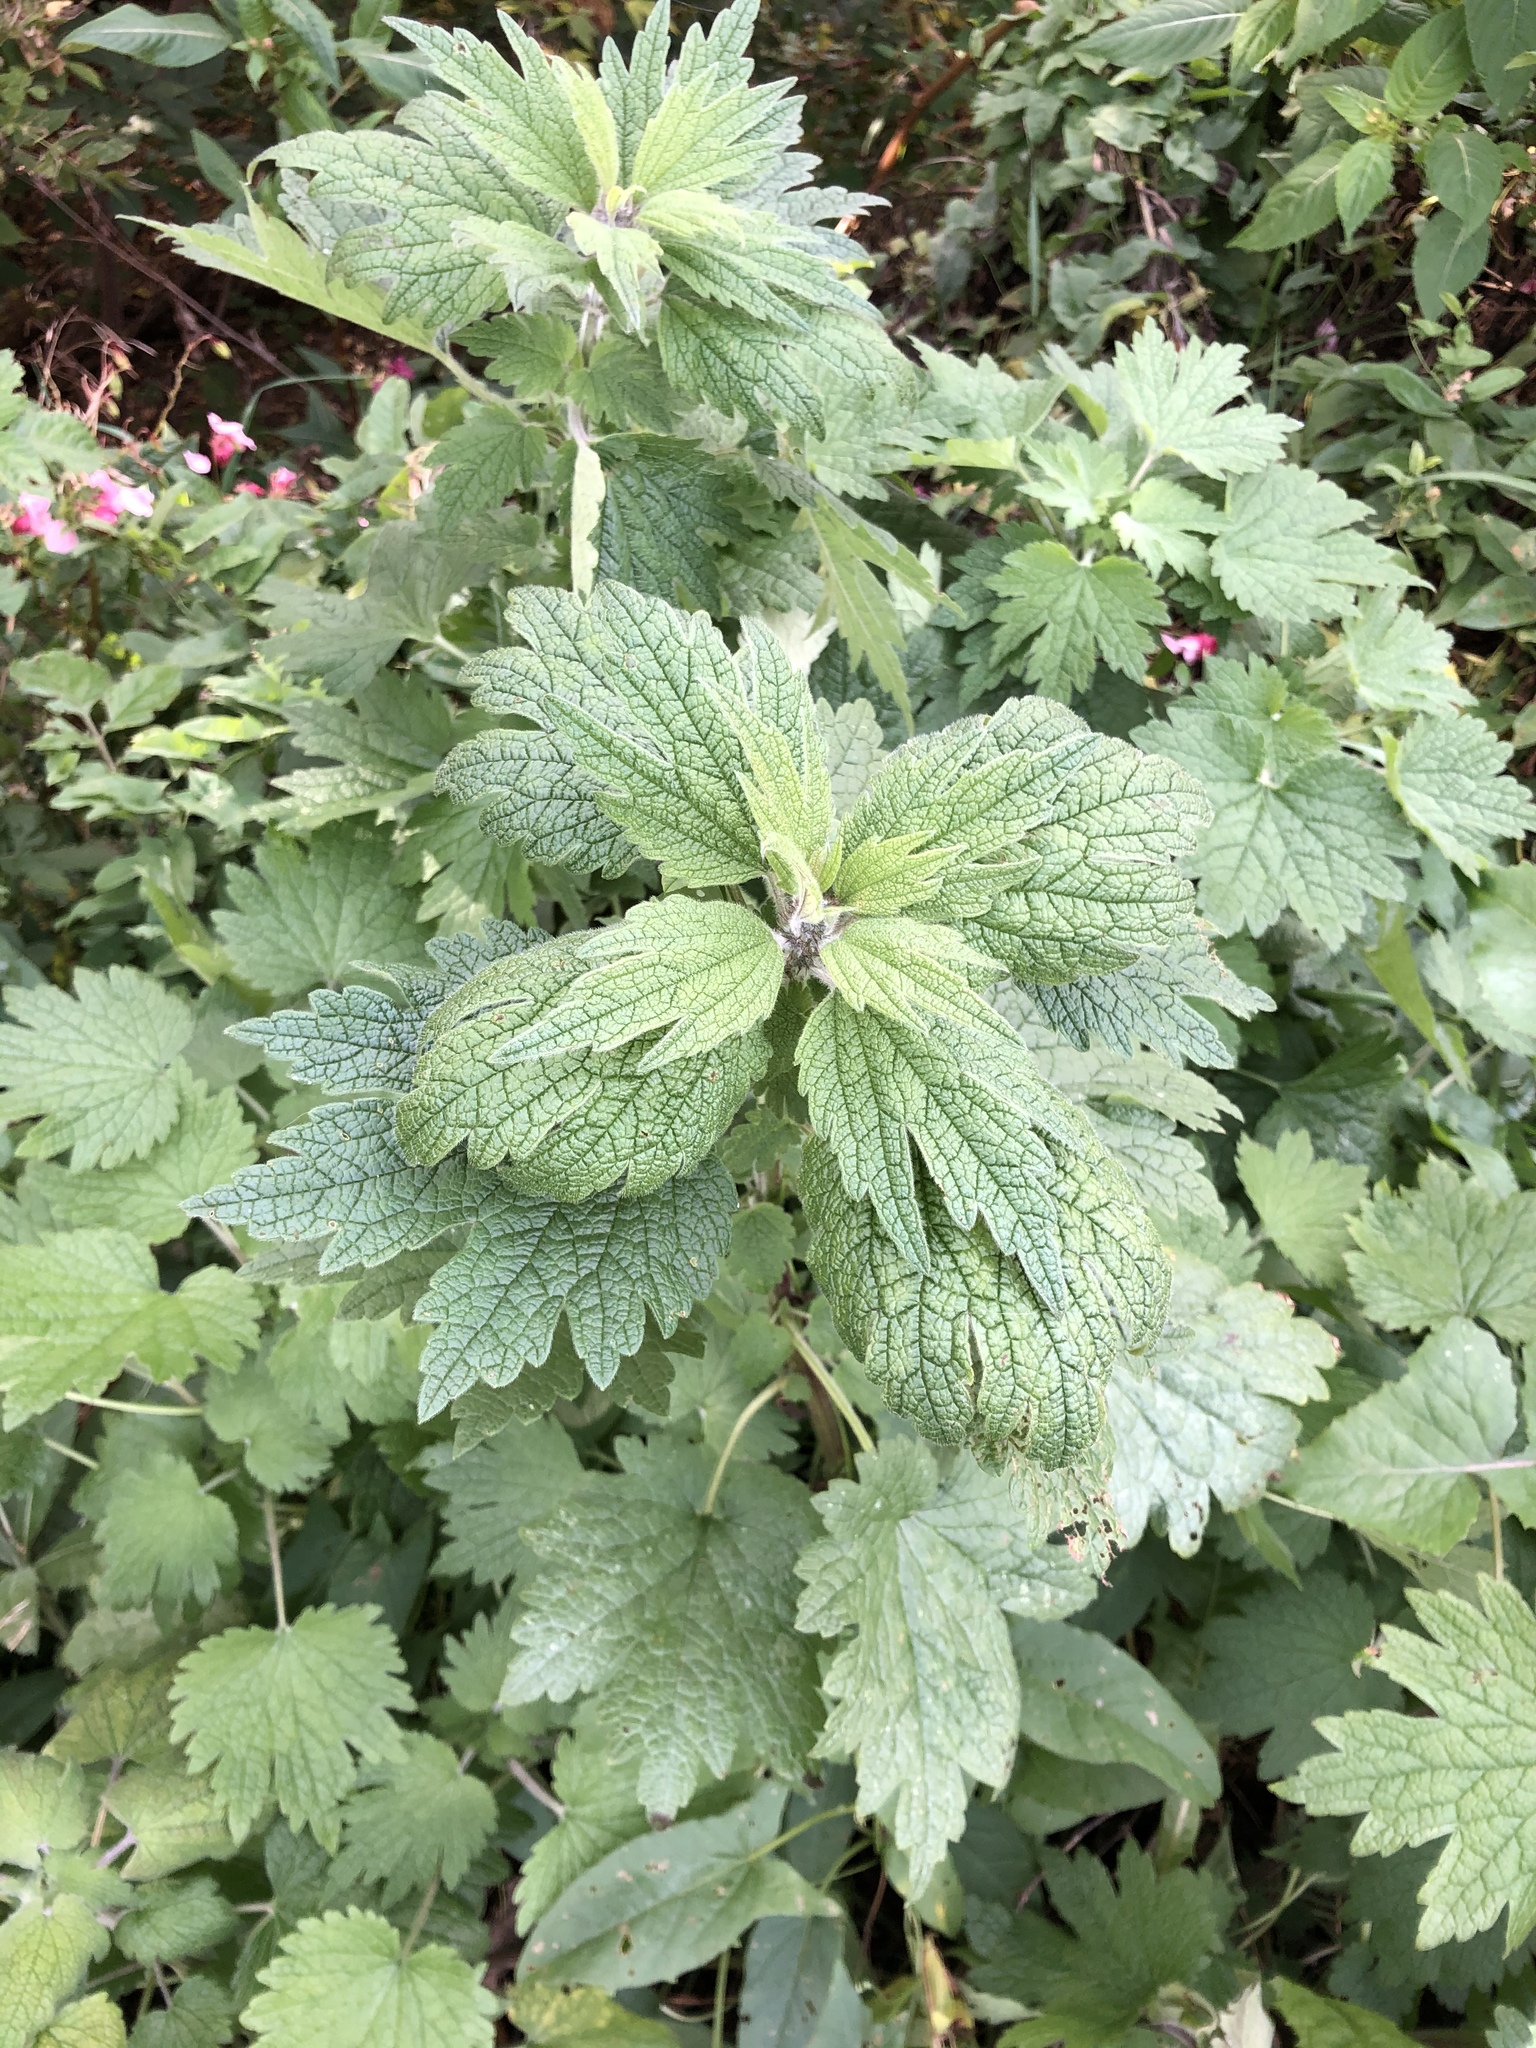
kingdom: Plantae
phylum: Tracheophyta
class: Magnoliopsida
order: Lamiales
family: Lamiaceae
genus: Leonurus
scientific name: Leonurus quinquelobatus
